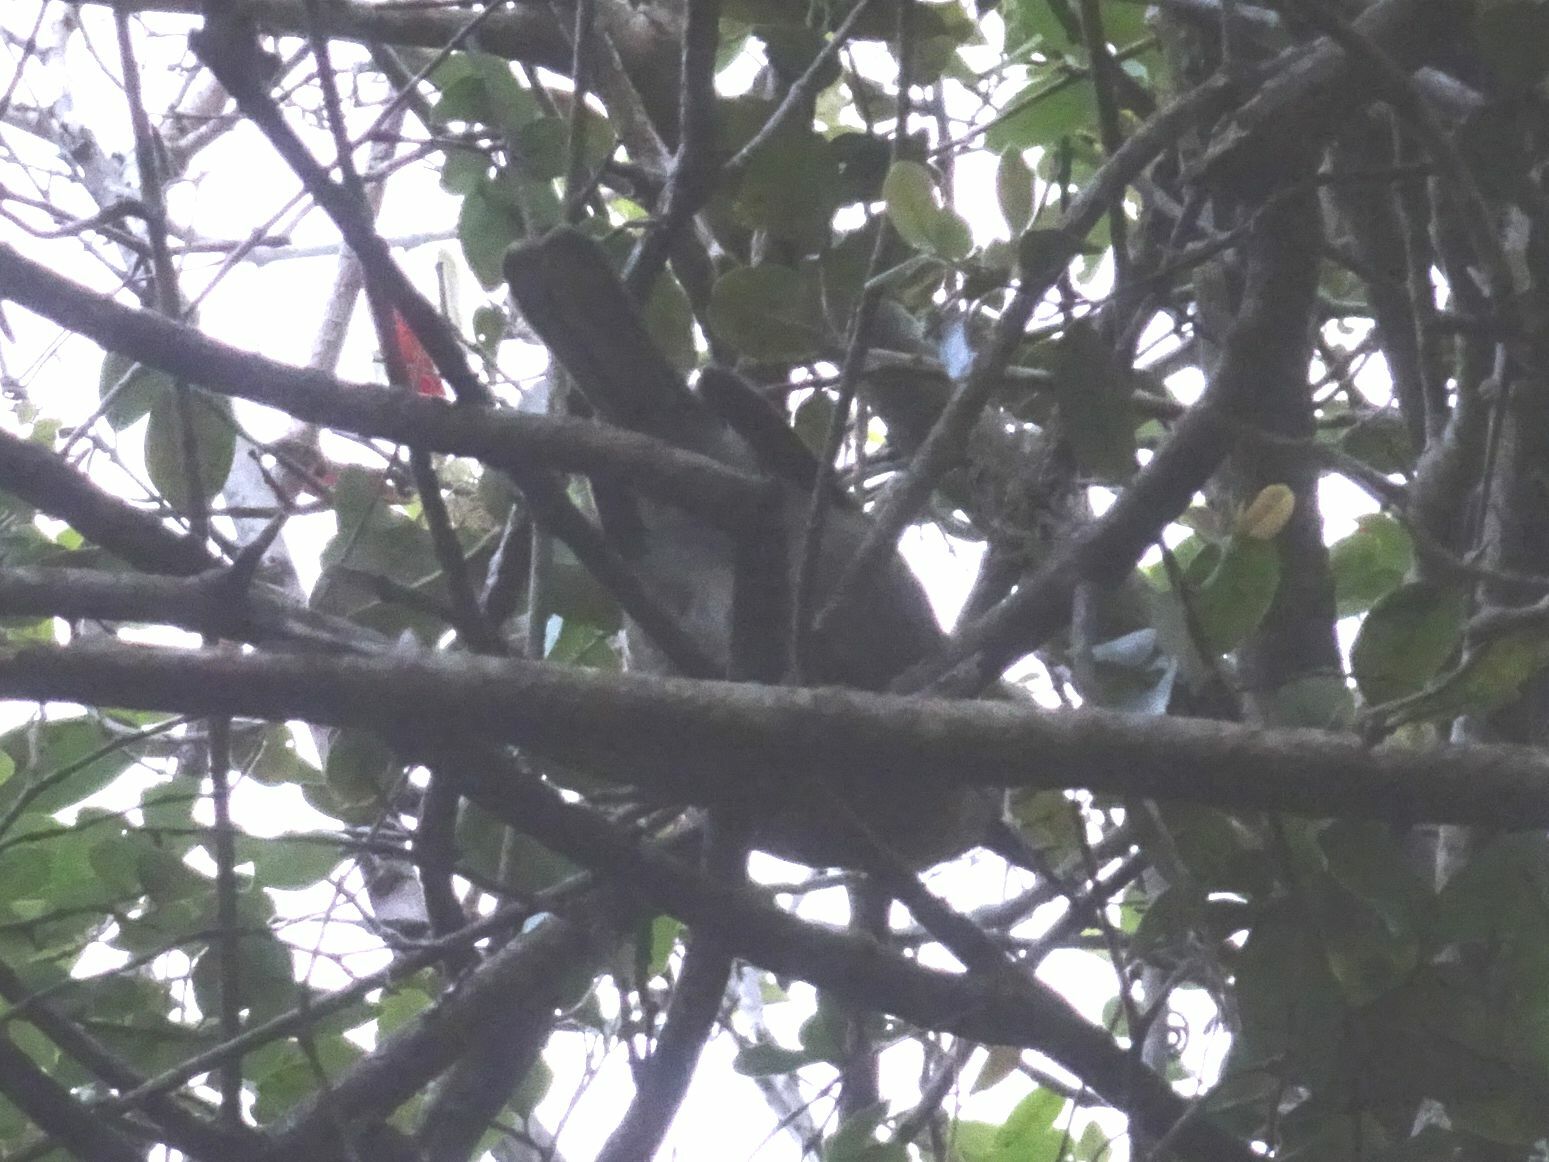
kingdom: Animalia
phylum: Chordata
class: Aves
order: Passeriformes
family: Malaconotidae
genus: Chlorophoneus
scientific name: Chlorophoneus olivaceus
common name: Olive bushshrike
